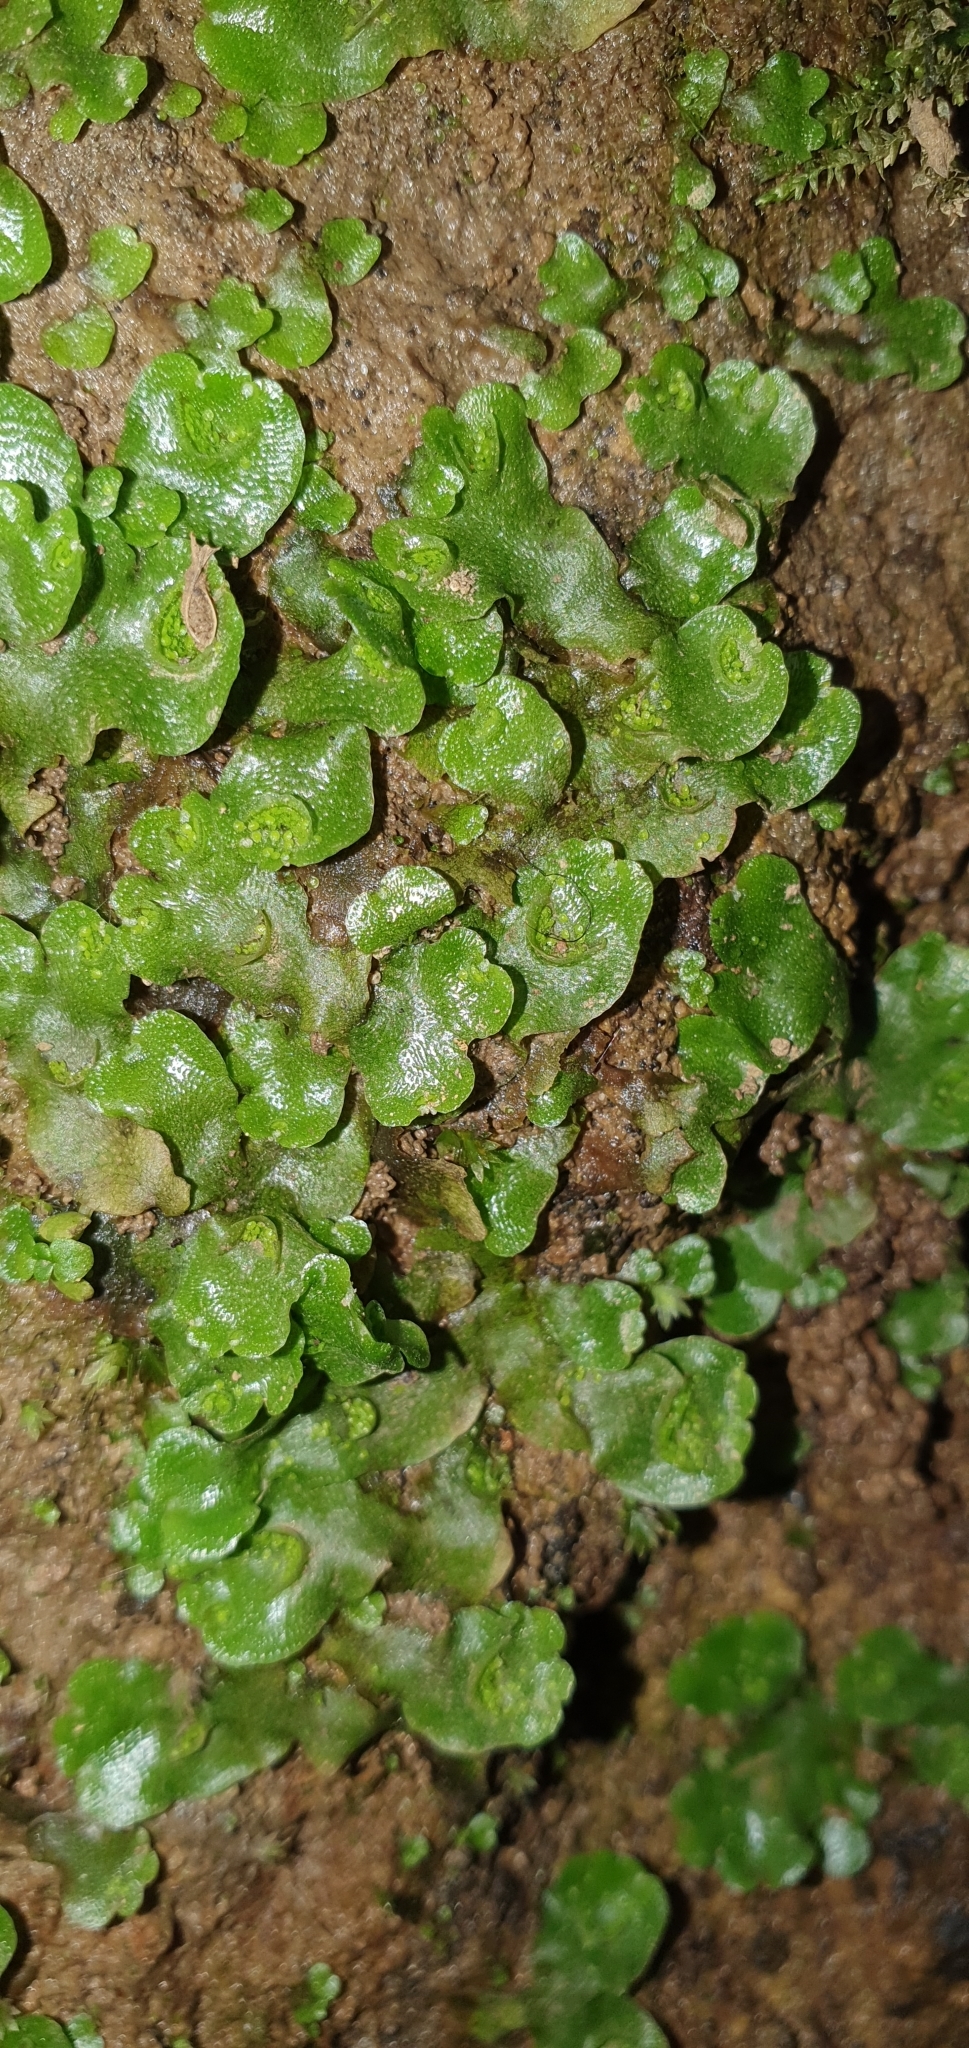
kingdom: Plantae
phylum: Marchantiophyta
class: Marchantiopsida
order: Lunulariales
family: Lunulariaceae
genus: Lunularia
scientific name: Lunularia cruciata
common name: Crescent-cup liverwort
